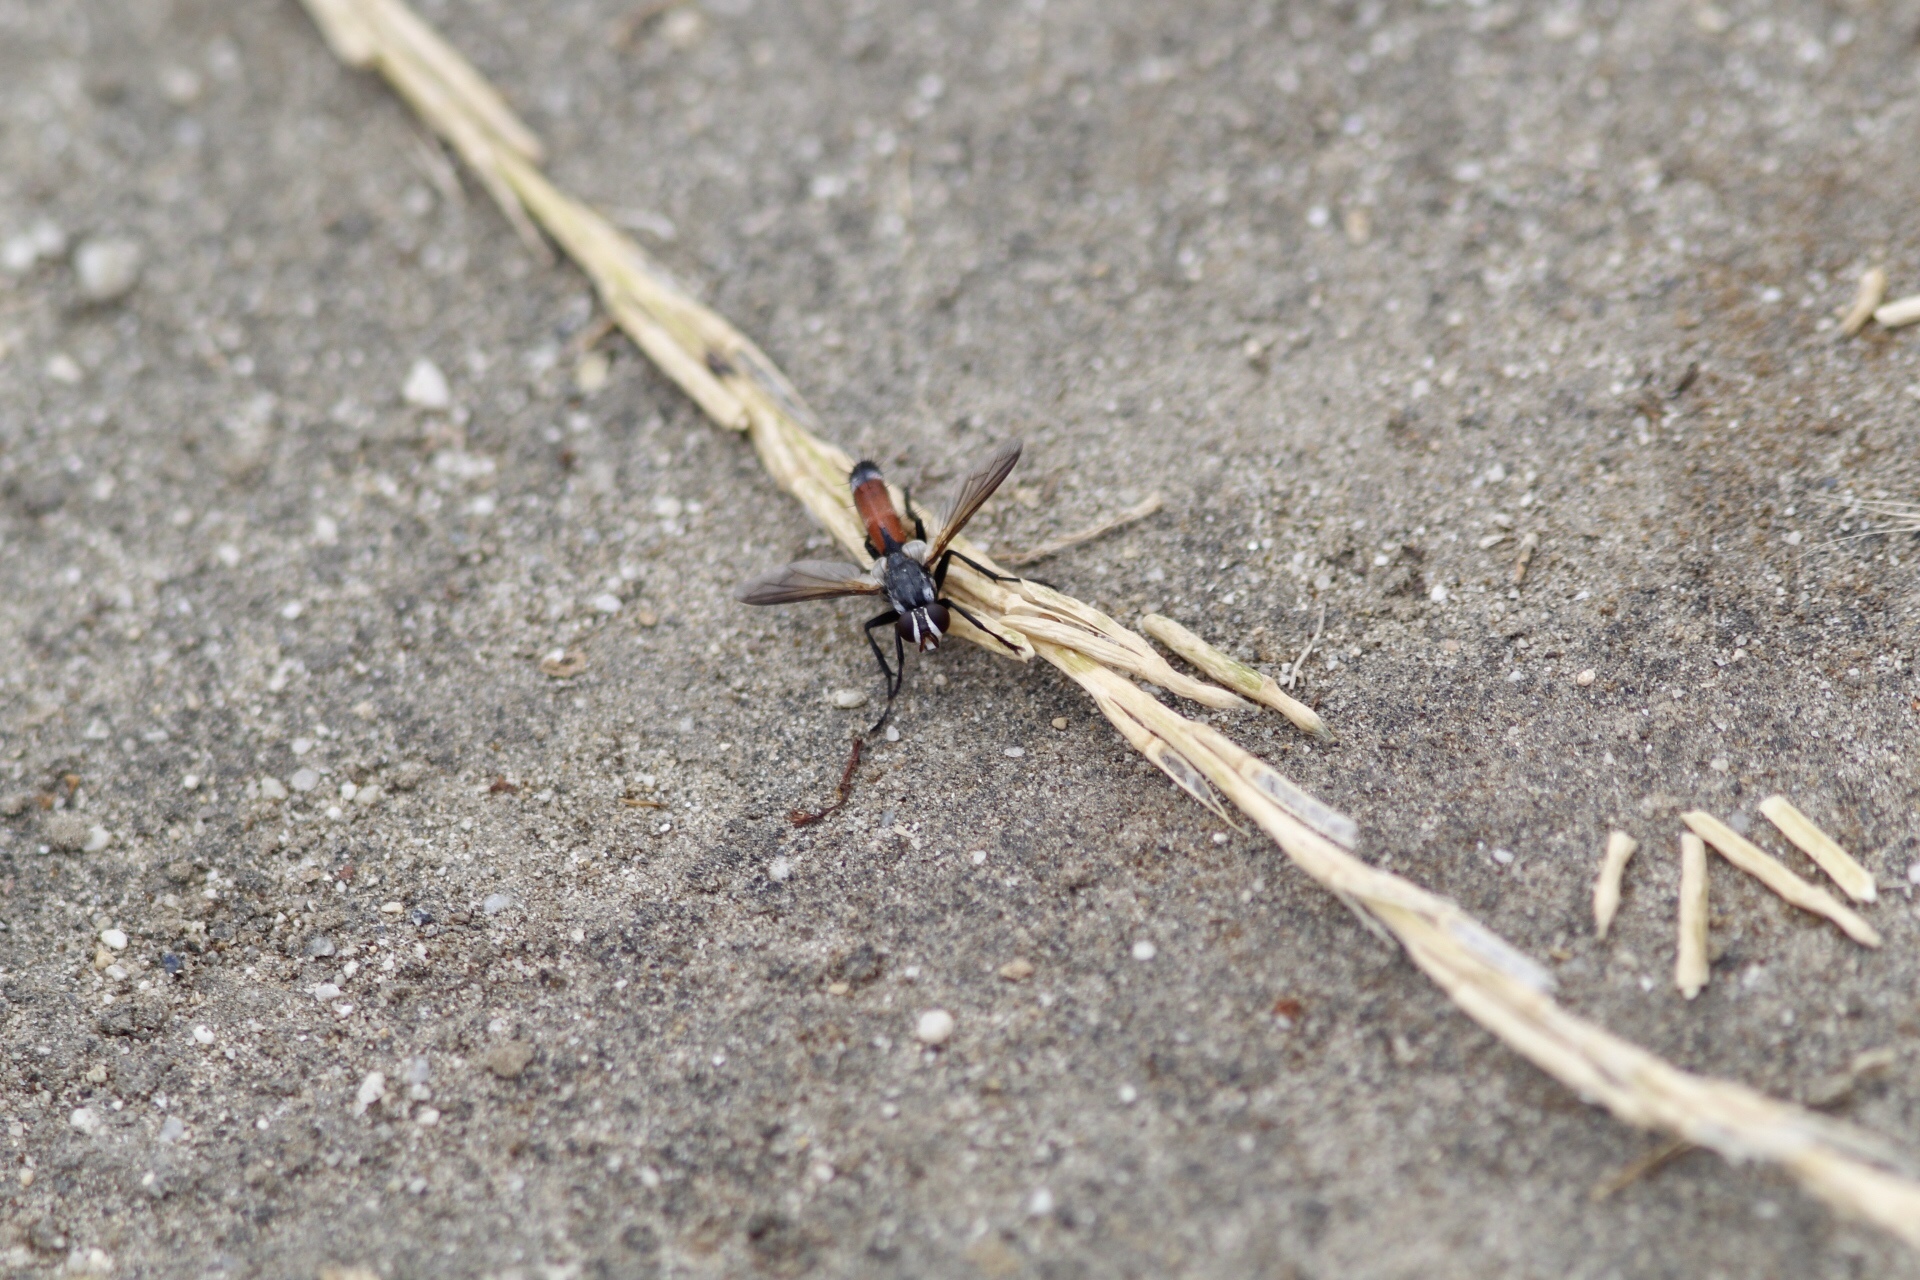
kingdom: Animalia
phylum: Arthropoda
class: Insecta
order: Diptera
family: Tachinidae
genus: Cylindromyia
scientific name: Cylindromyia intermedia
